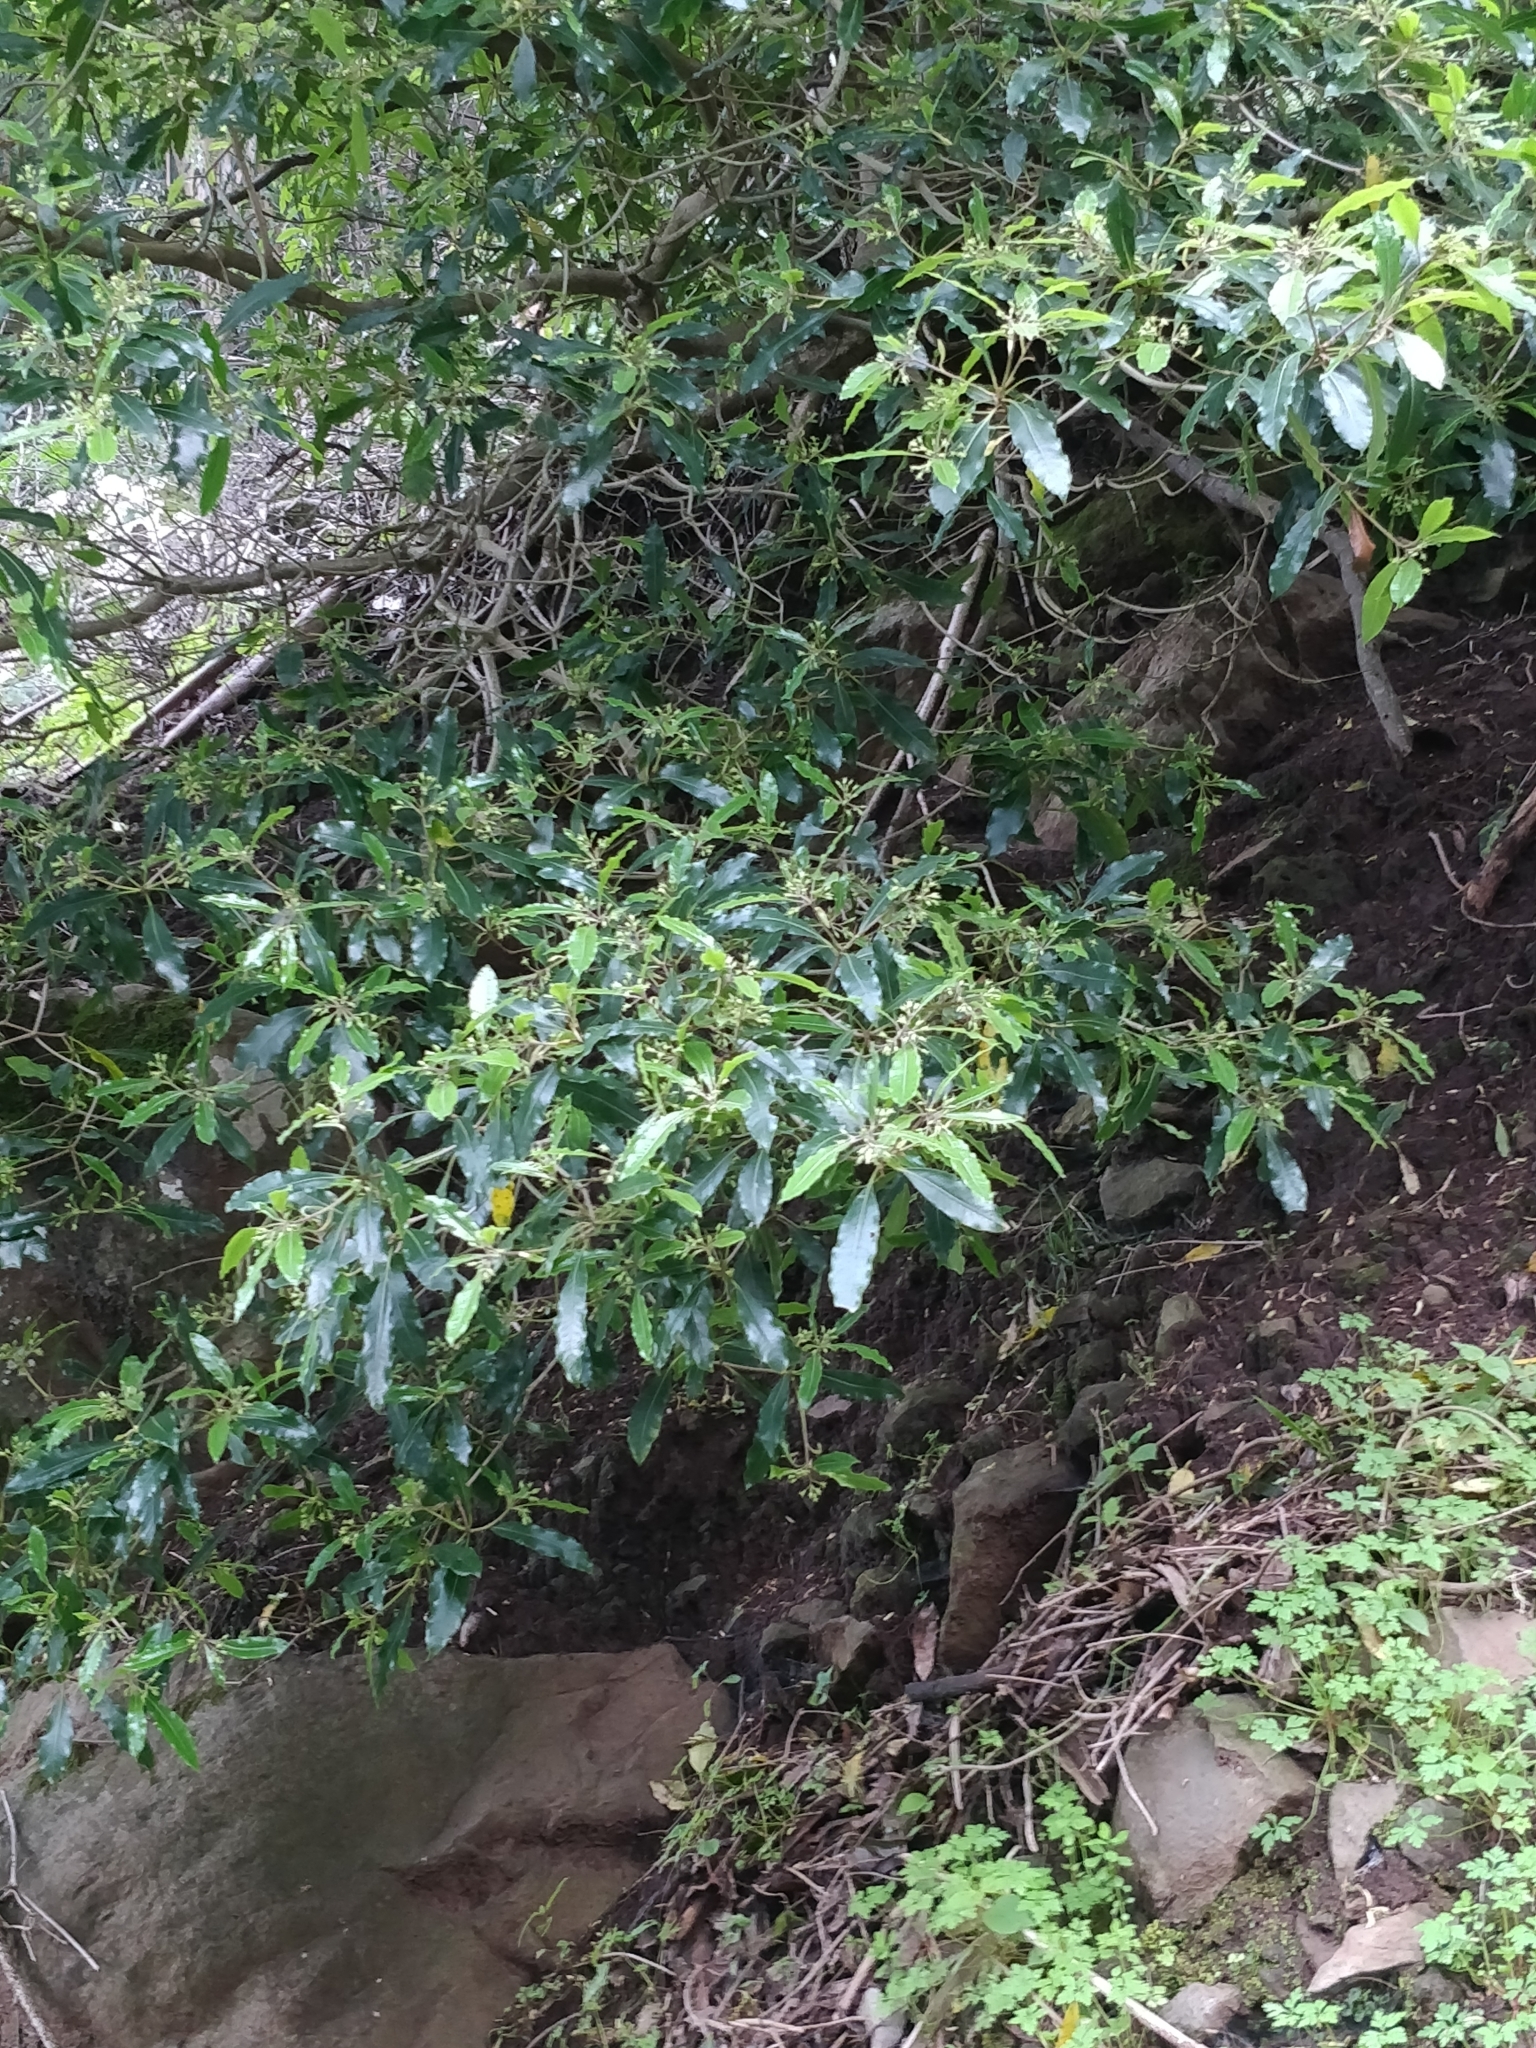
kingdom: Plantae
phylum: Tracheophyta
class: Magnoliopsida
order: Apiales
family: Pittosporaceae
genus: Pittosporum
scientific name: Pittosporum undulatum
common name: Australian cheesewood
